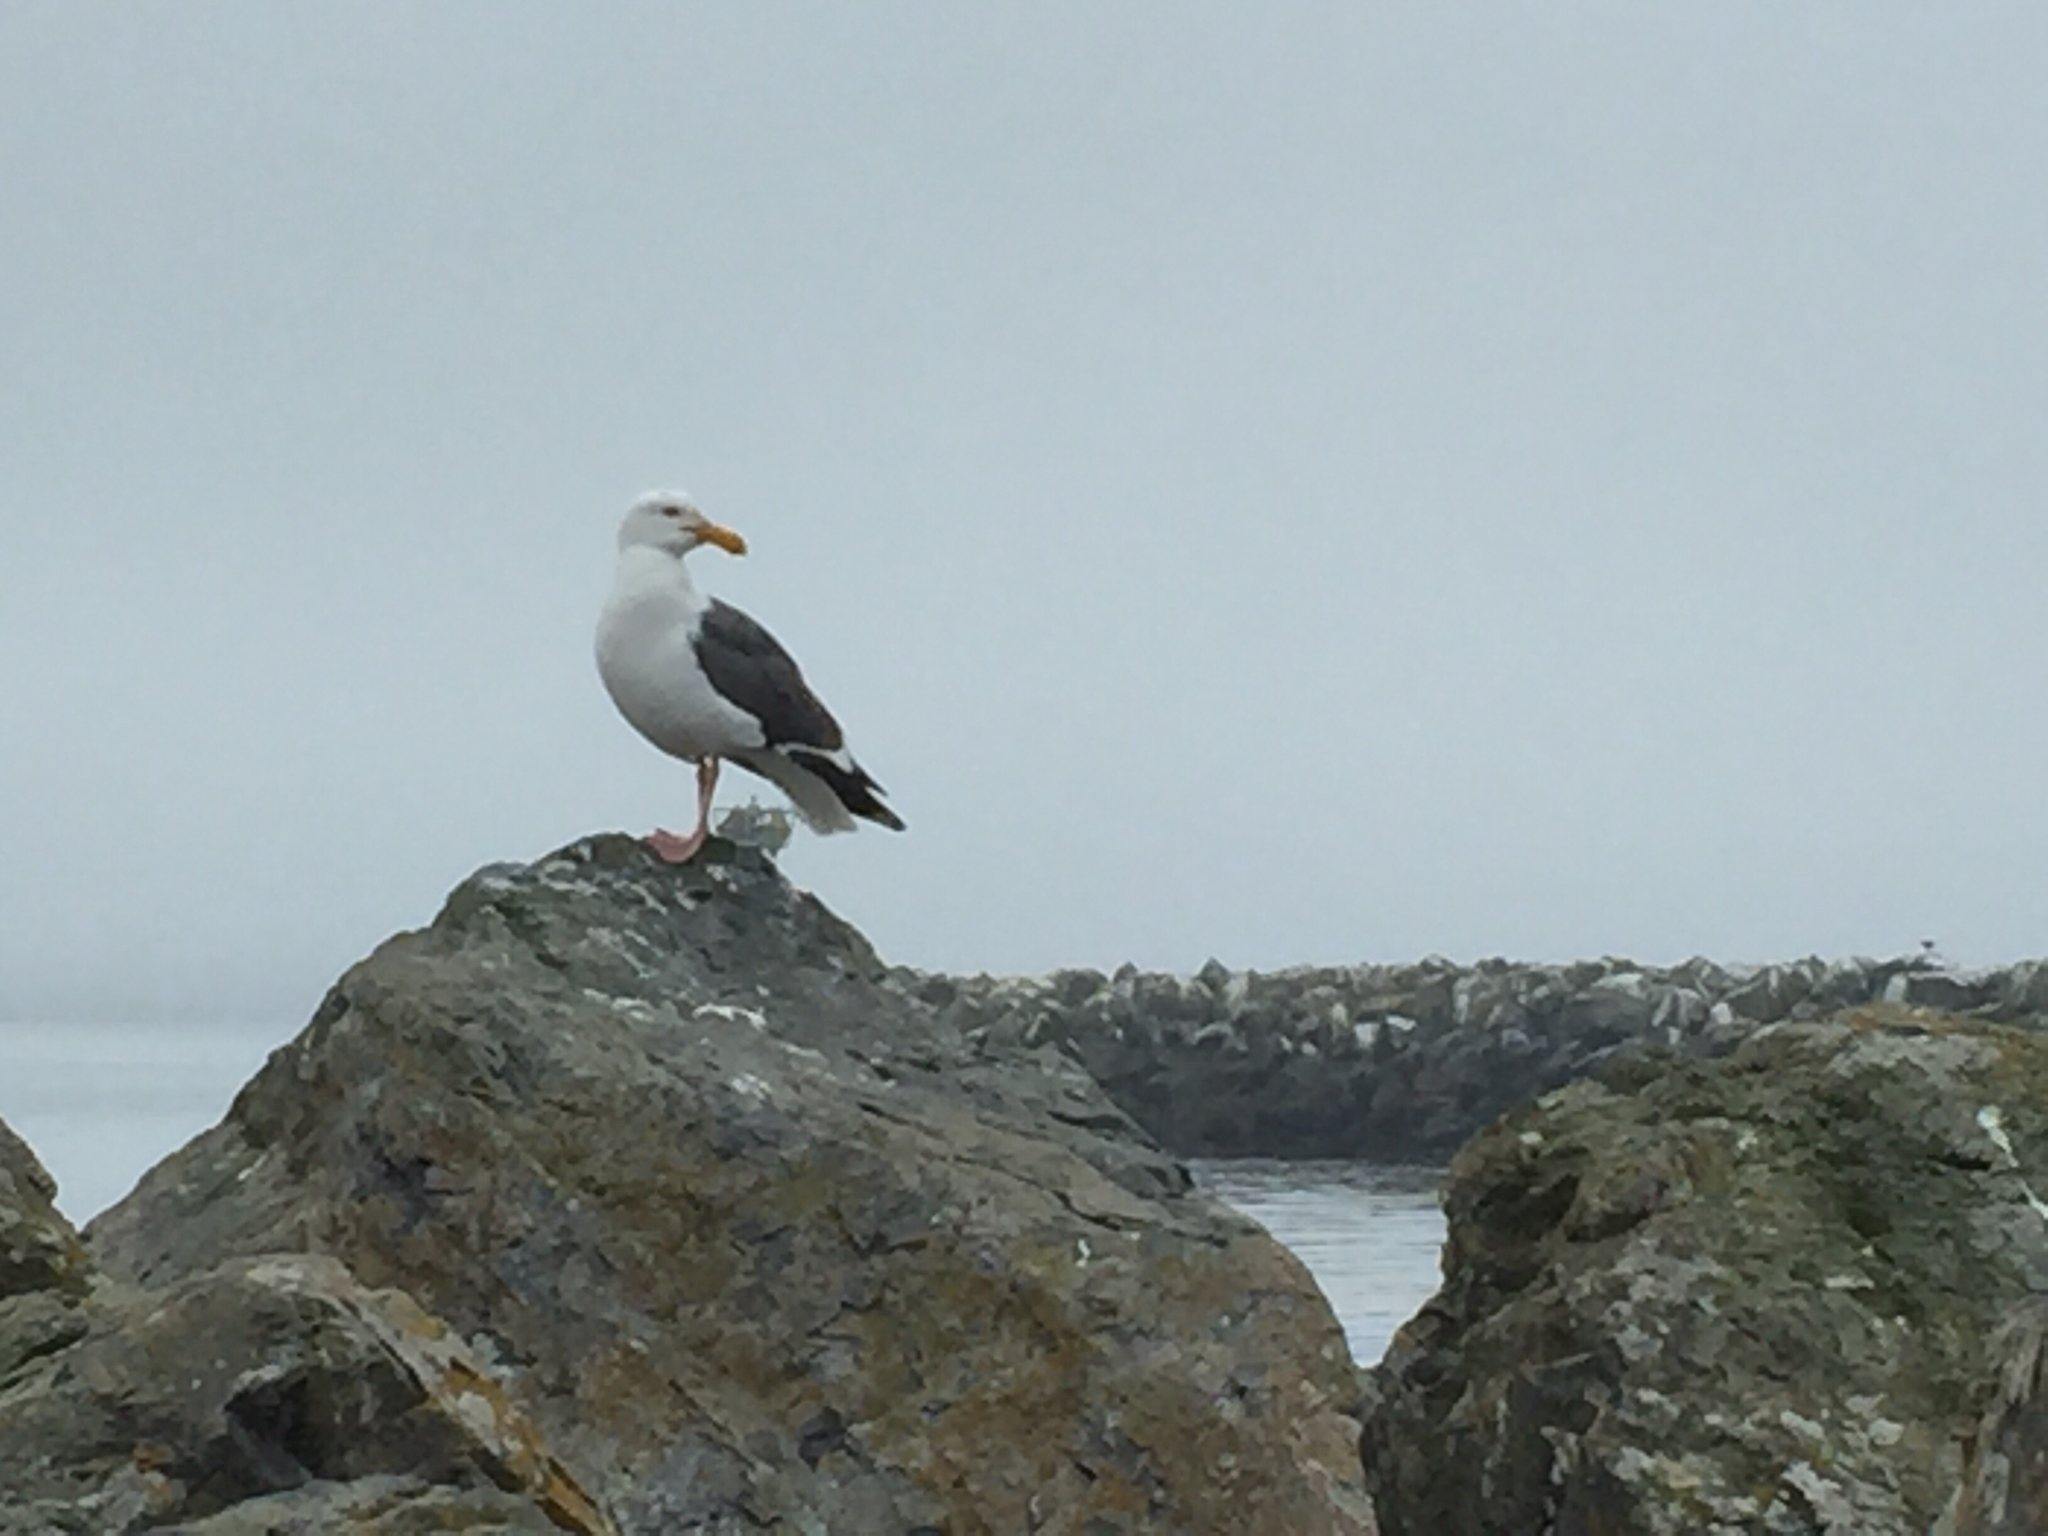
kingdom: Animalia
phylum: Chordata
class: Aves
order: Charadriiformes
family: Laridae
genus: Larus
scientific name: Larus occidentalis
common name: Western gull
